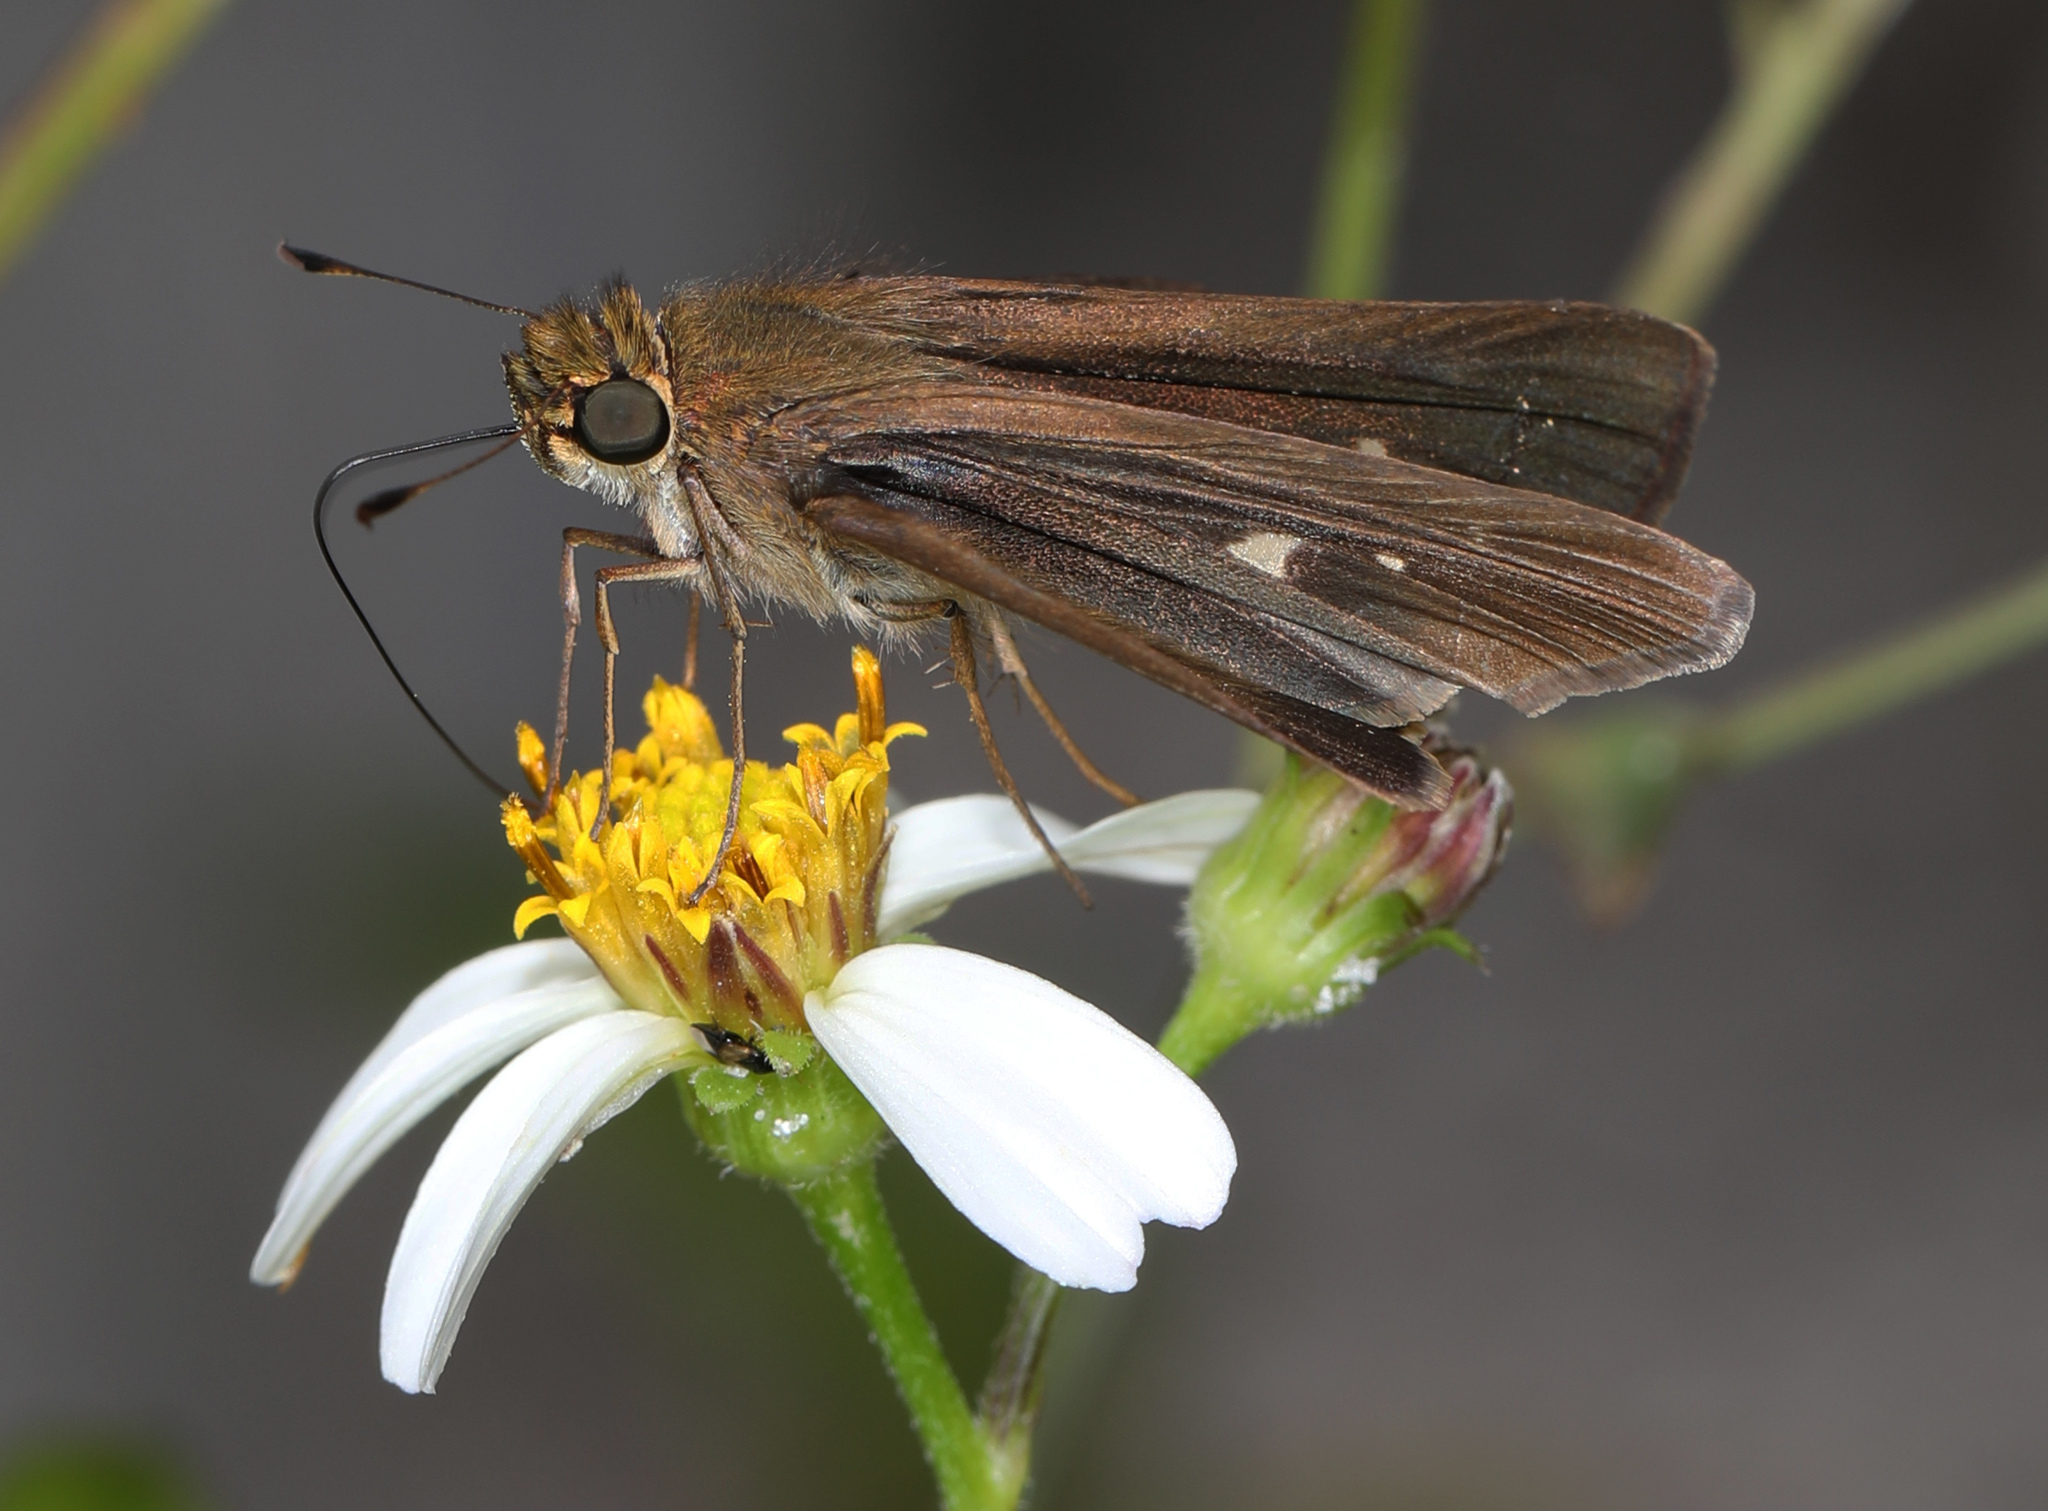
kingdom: Animalia
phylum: Arthropoda
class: Insecta
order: Lepidoptera
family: Hesperiidae
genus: Panoquina
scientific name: Panoquina ocola
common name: Ocola skipper
